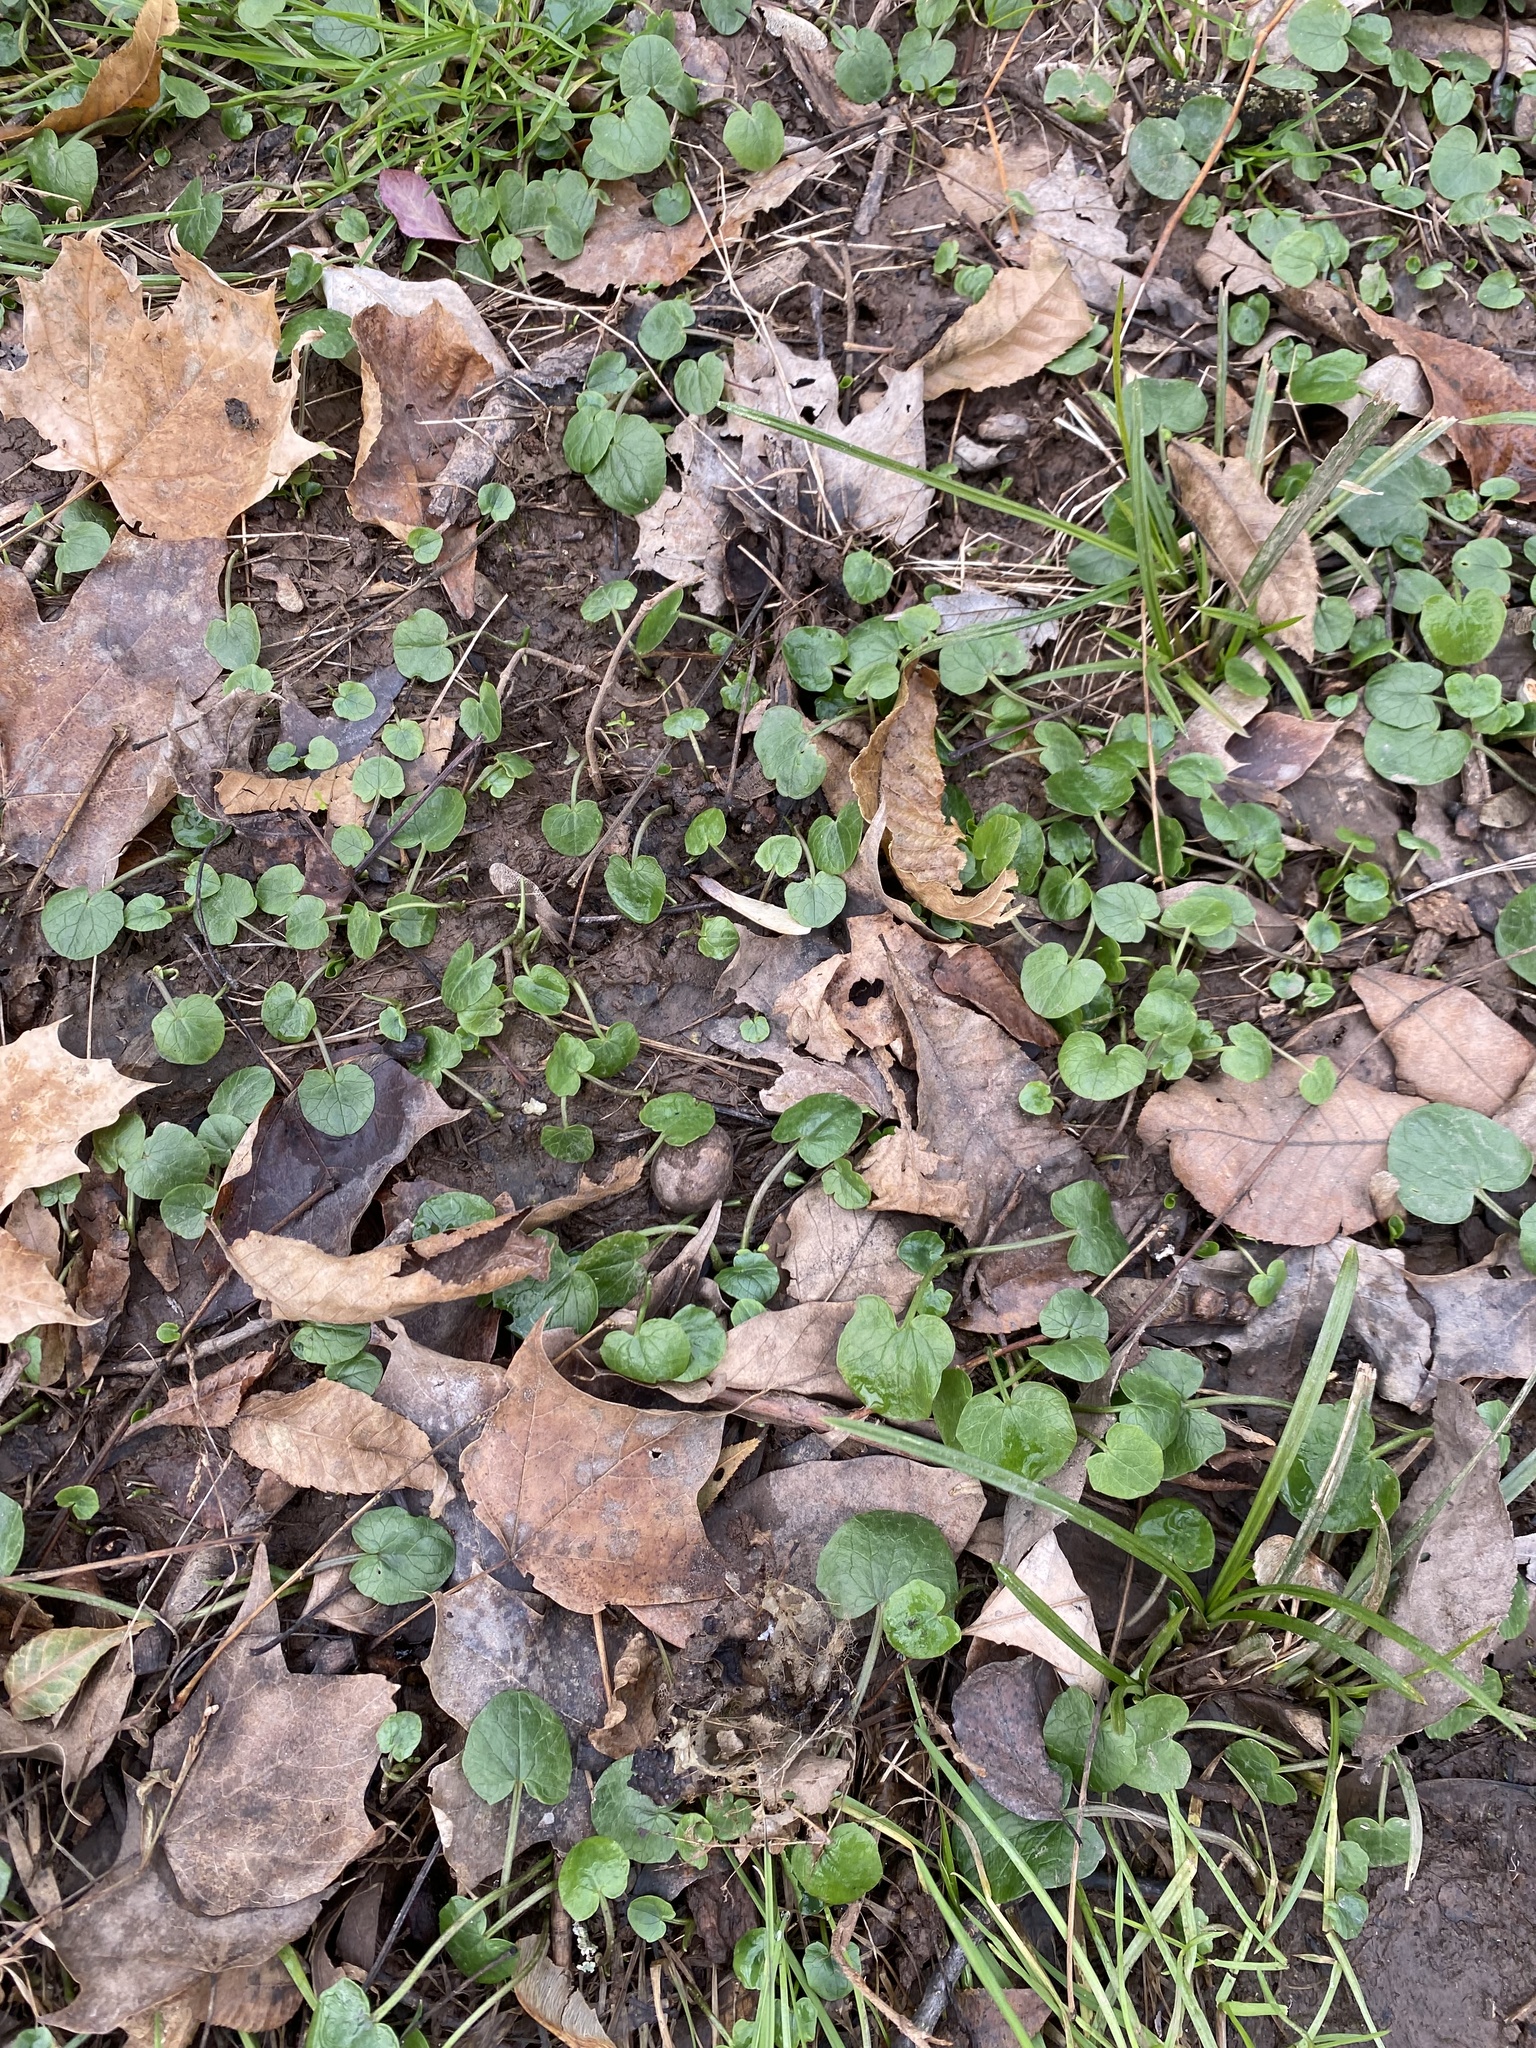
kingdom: Plantae
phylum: Tracheophyta
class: Magnoliopsida
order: Ranunculales
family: Ranunculaceae
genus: Ficaria
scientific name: Ficaria verna
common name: Lesser celandine
